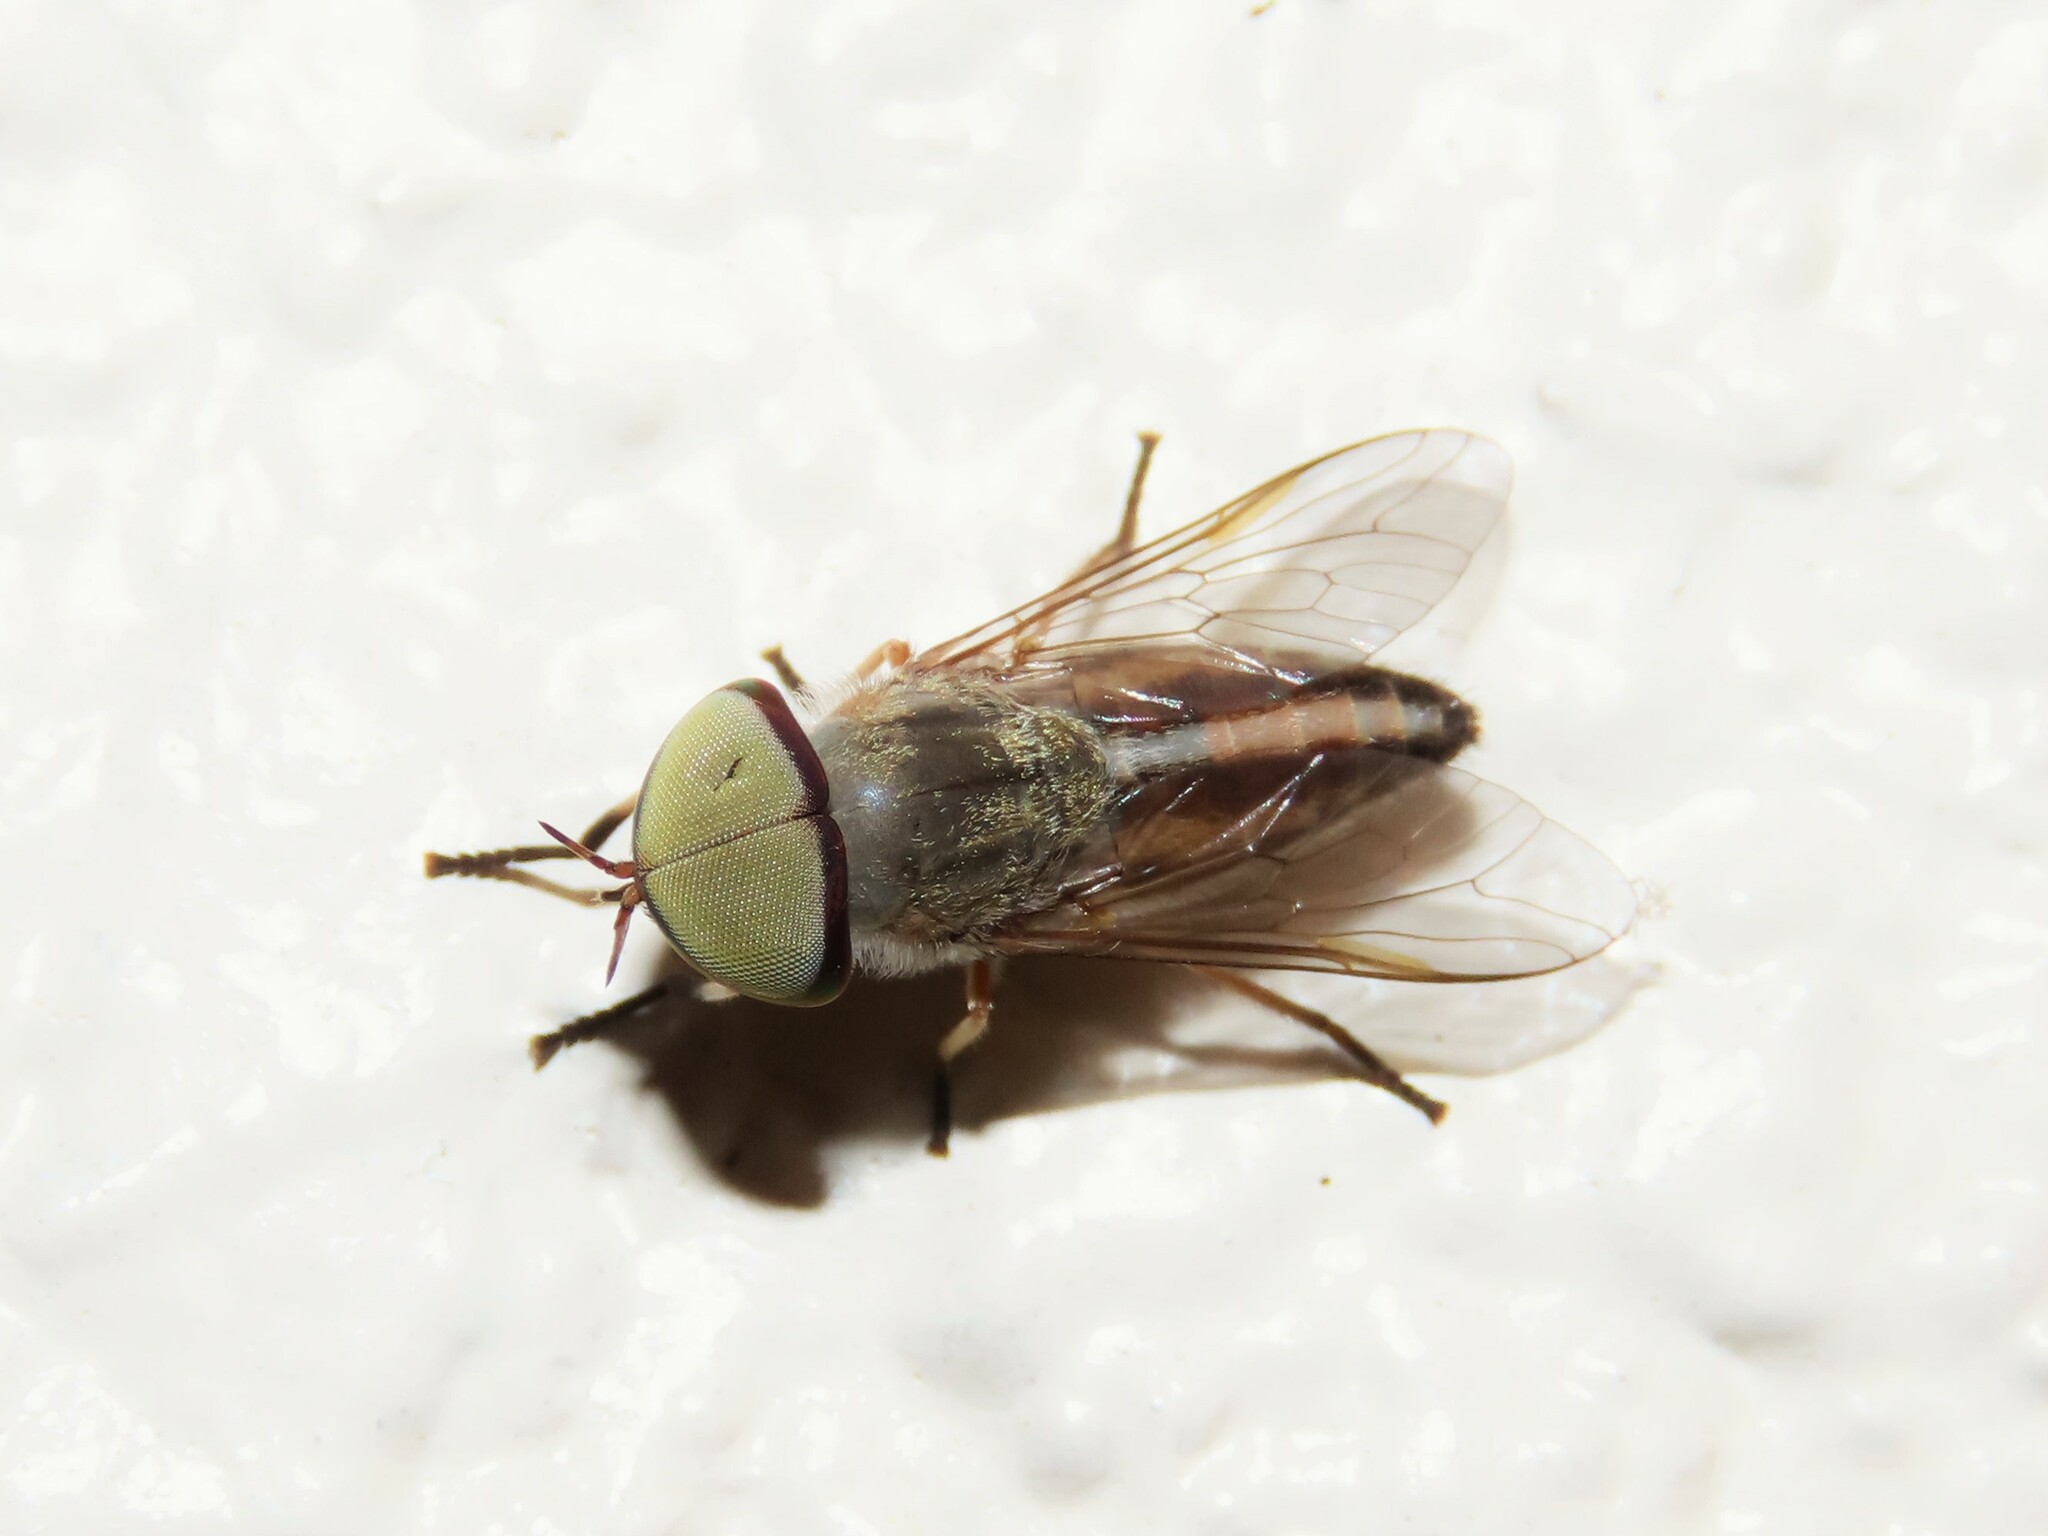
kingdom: Animalia
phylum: Arthropoda
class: Insecta
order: Diptera
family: Tabanidae
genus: Tabanus
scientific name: Tabanus lineola
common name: Striped horse fly
